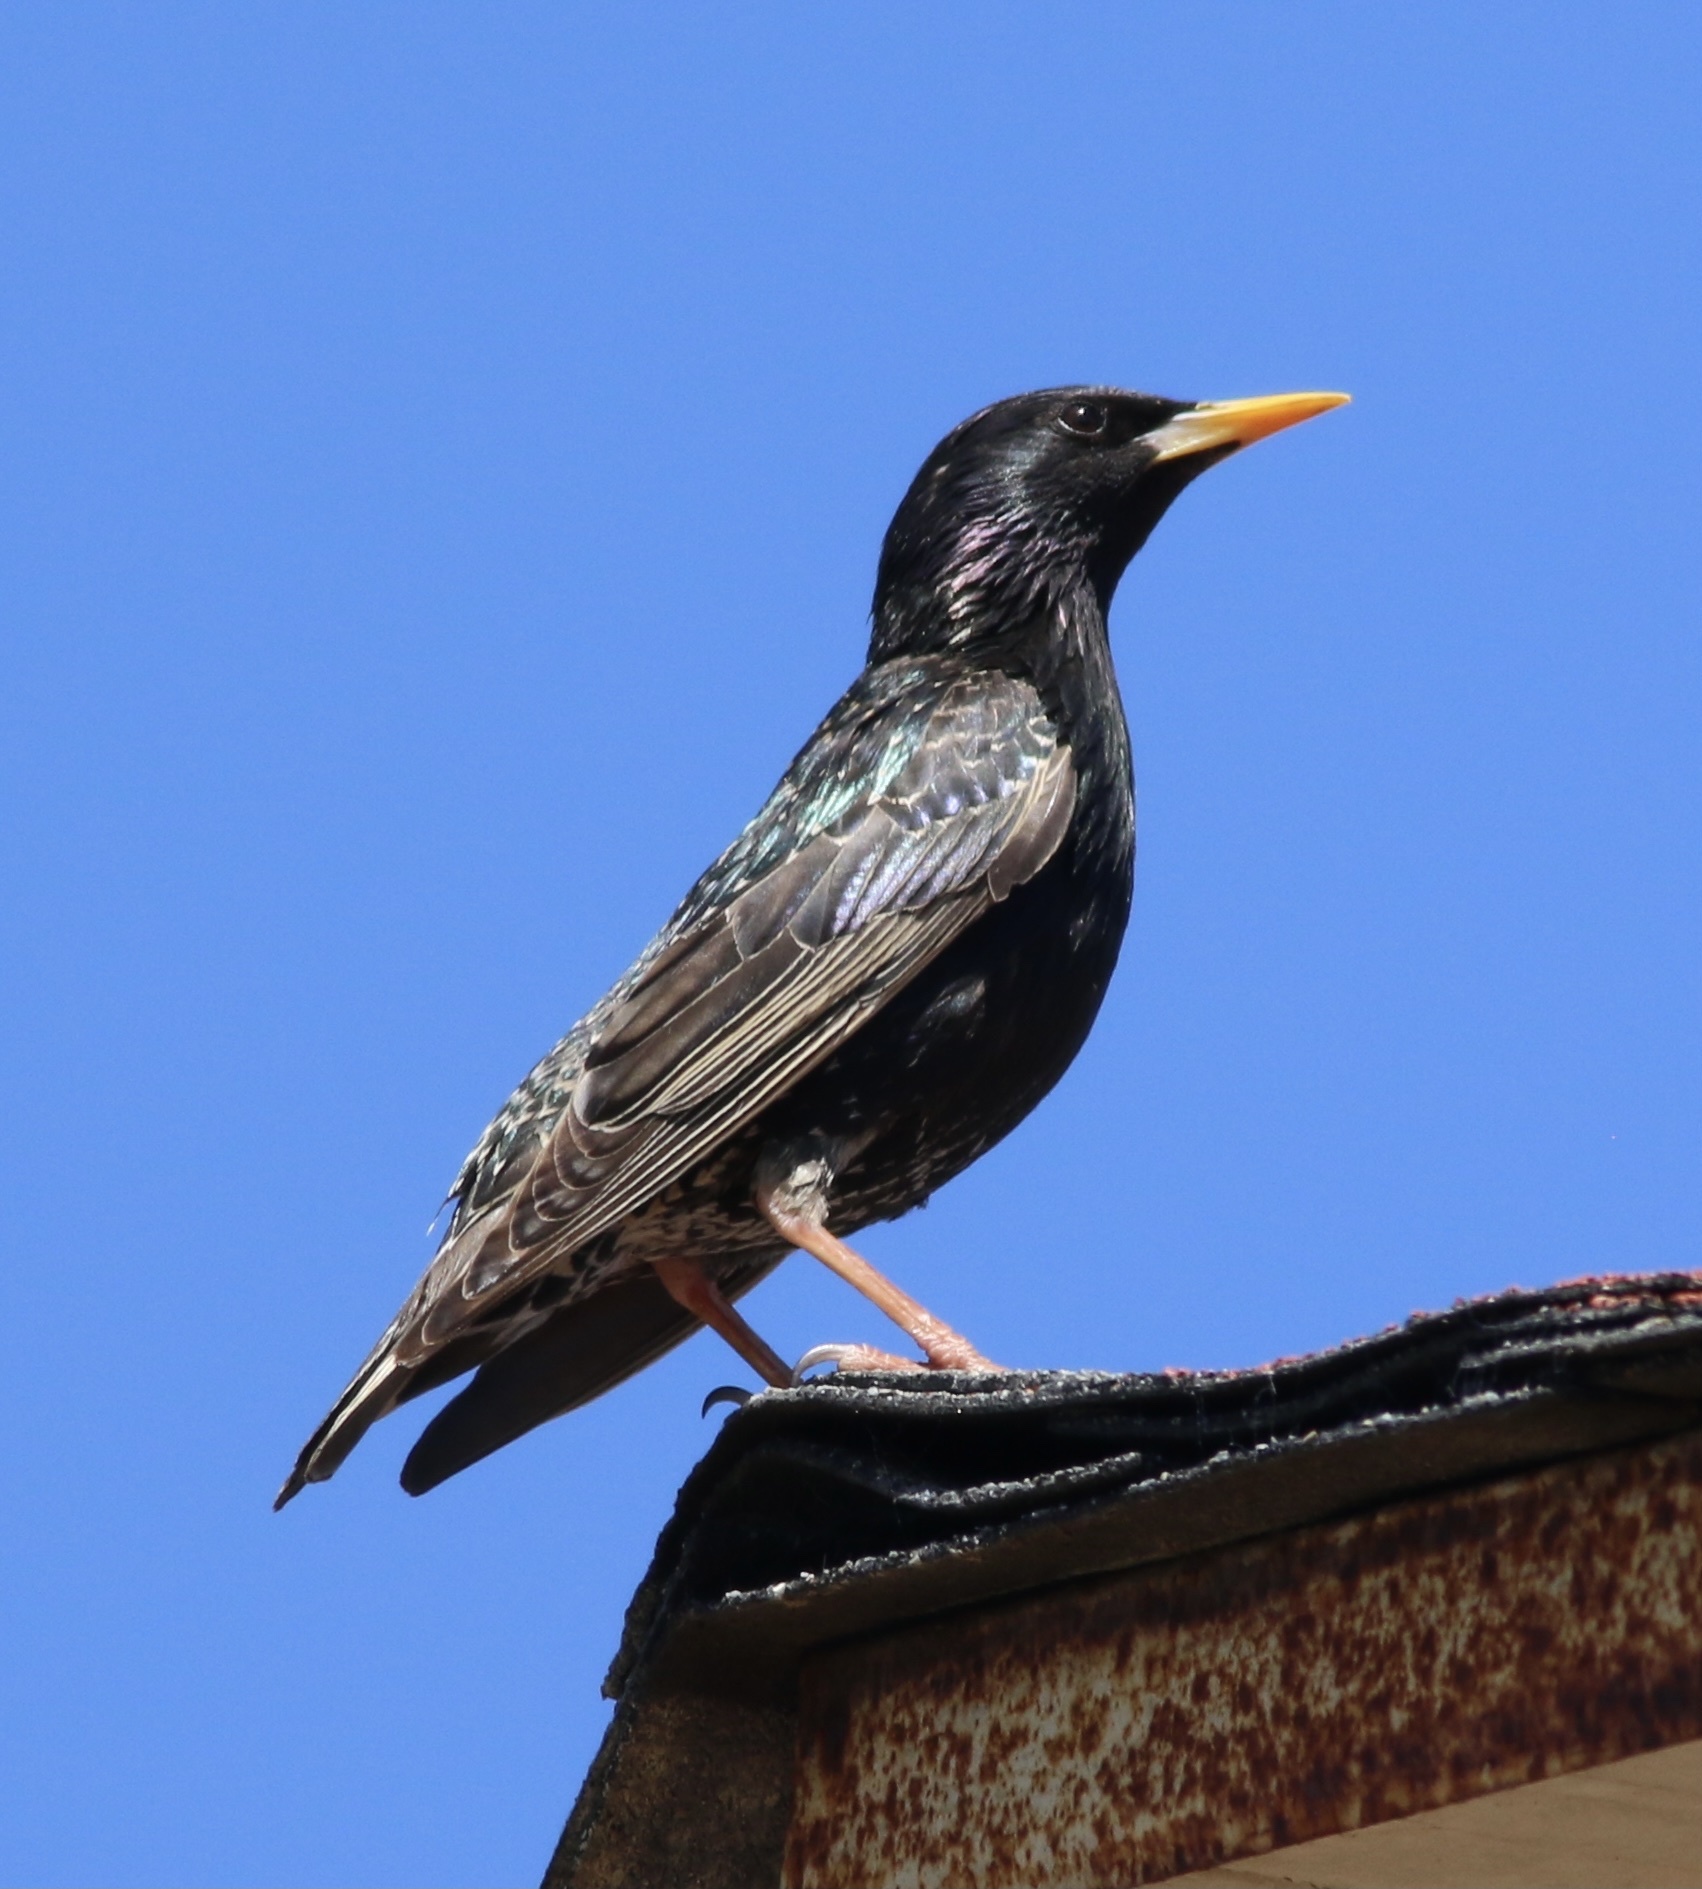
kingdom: Animalia
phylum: Chordata
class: Aves
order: Passeriformes
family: Sturnidae
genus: Sturnus
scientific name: Sturnus vulgaris
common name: Common starling
